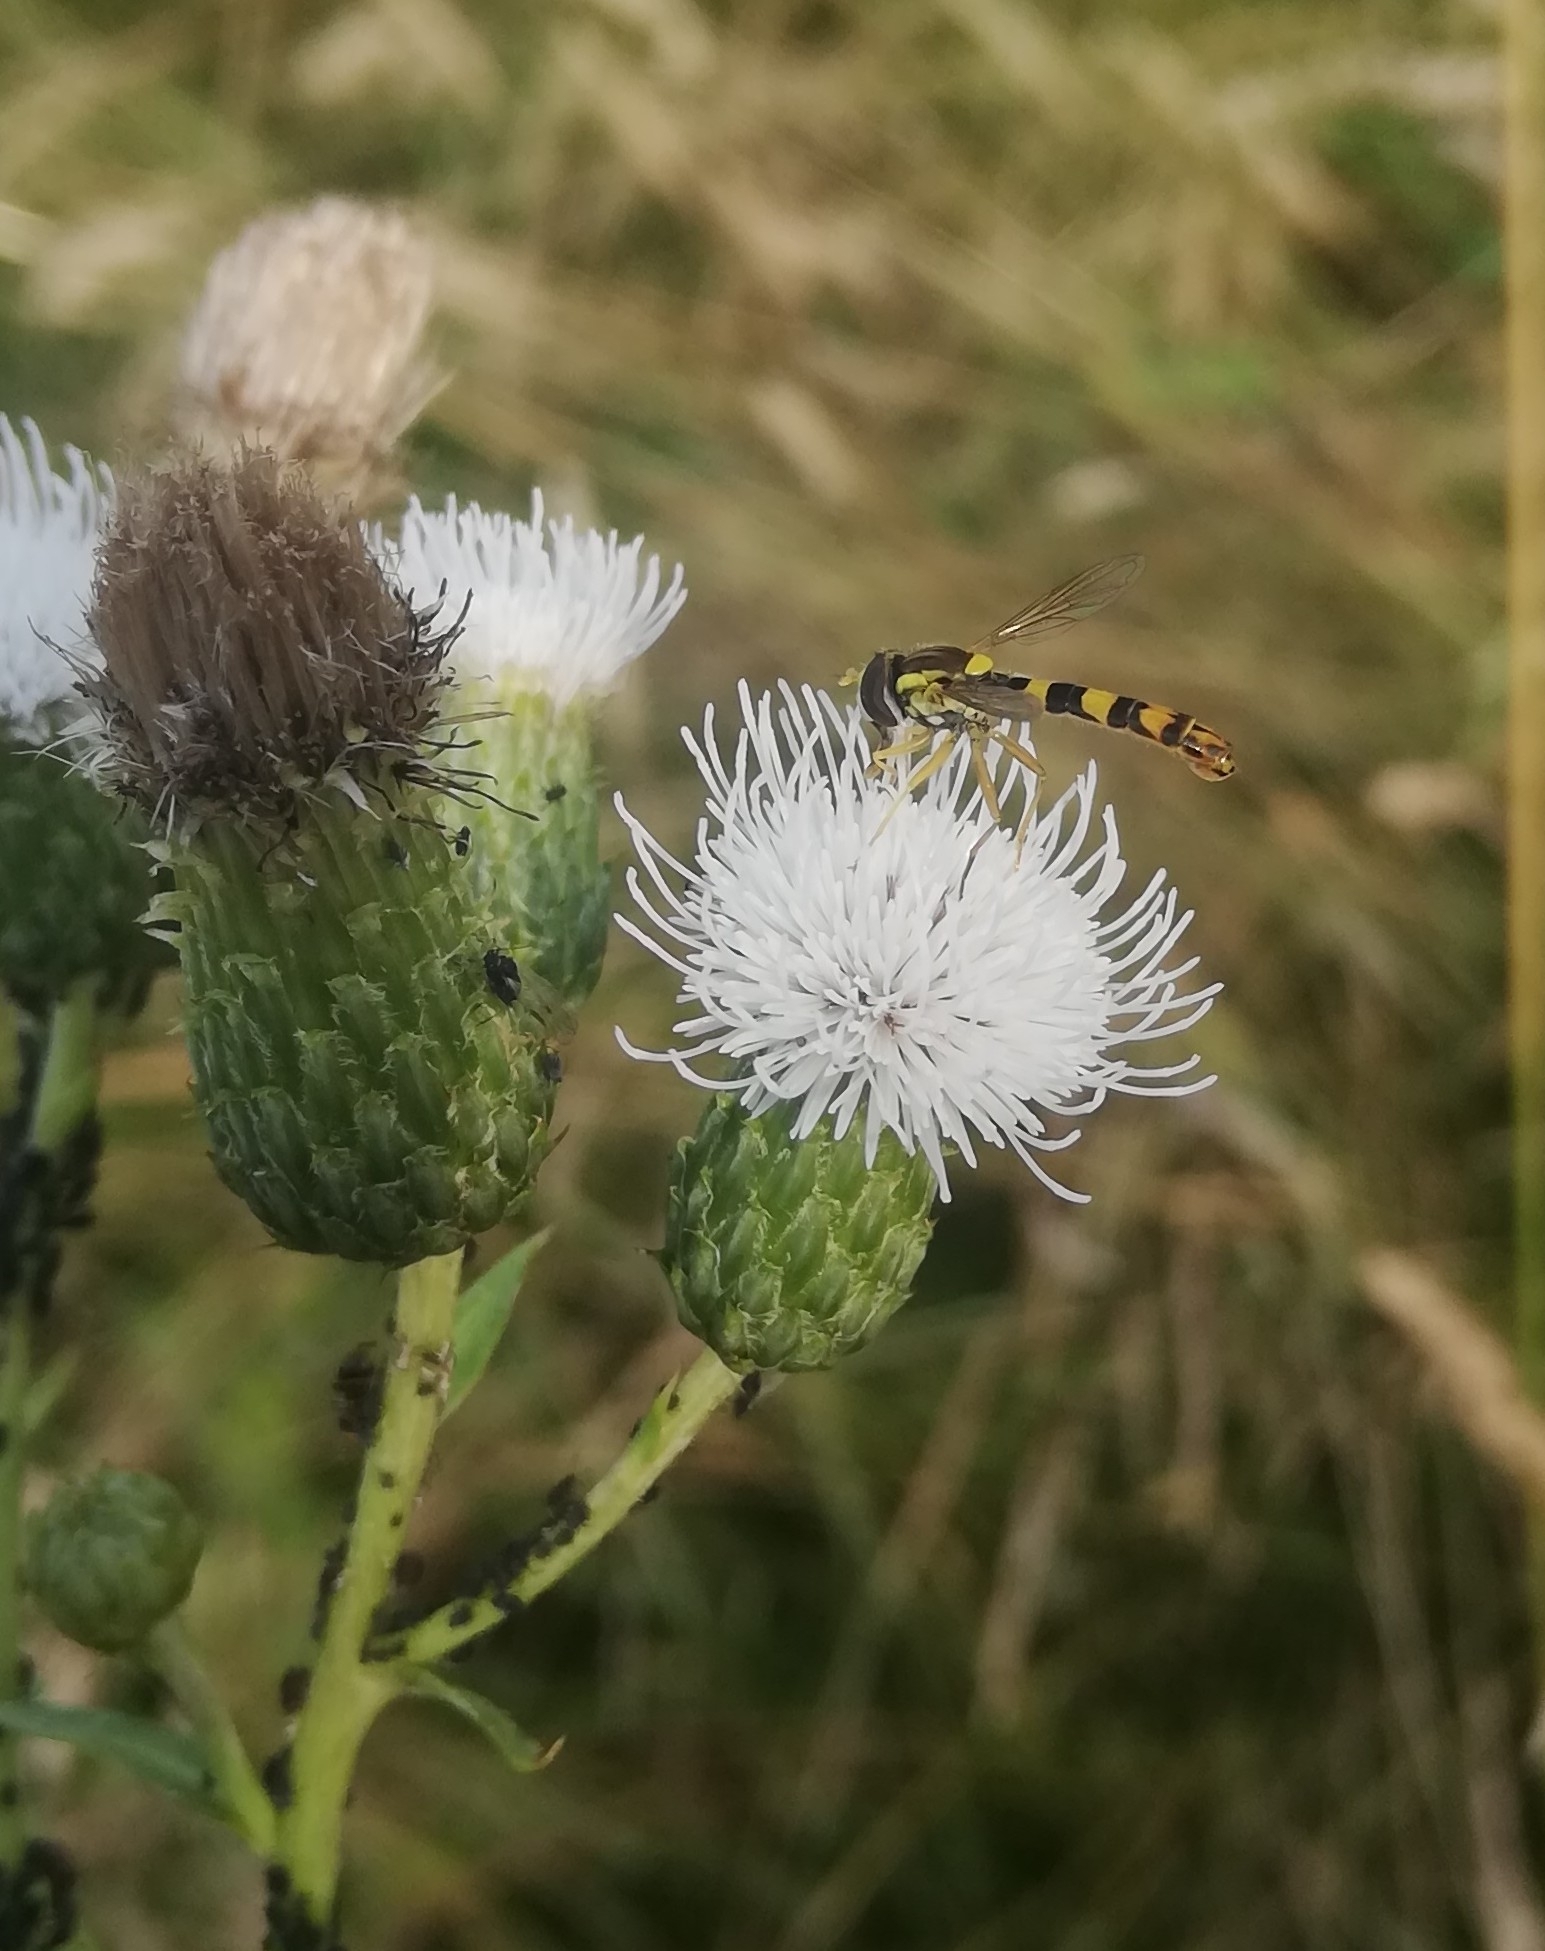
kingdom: Animalia
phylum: Arthropoda
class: Insecta
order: Diptera
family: Syrphidae
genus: Sphaerophoria
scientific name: Sphaerophoria scripta
